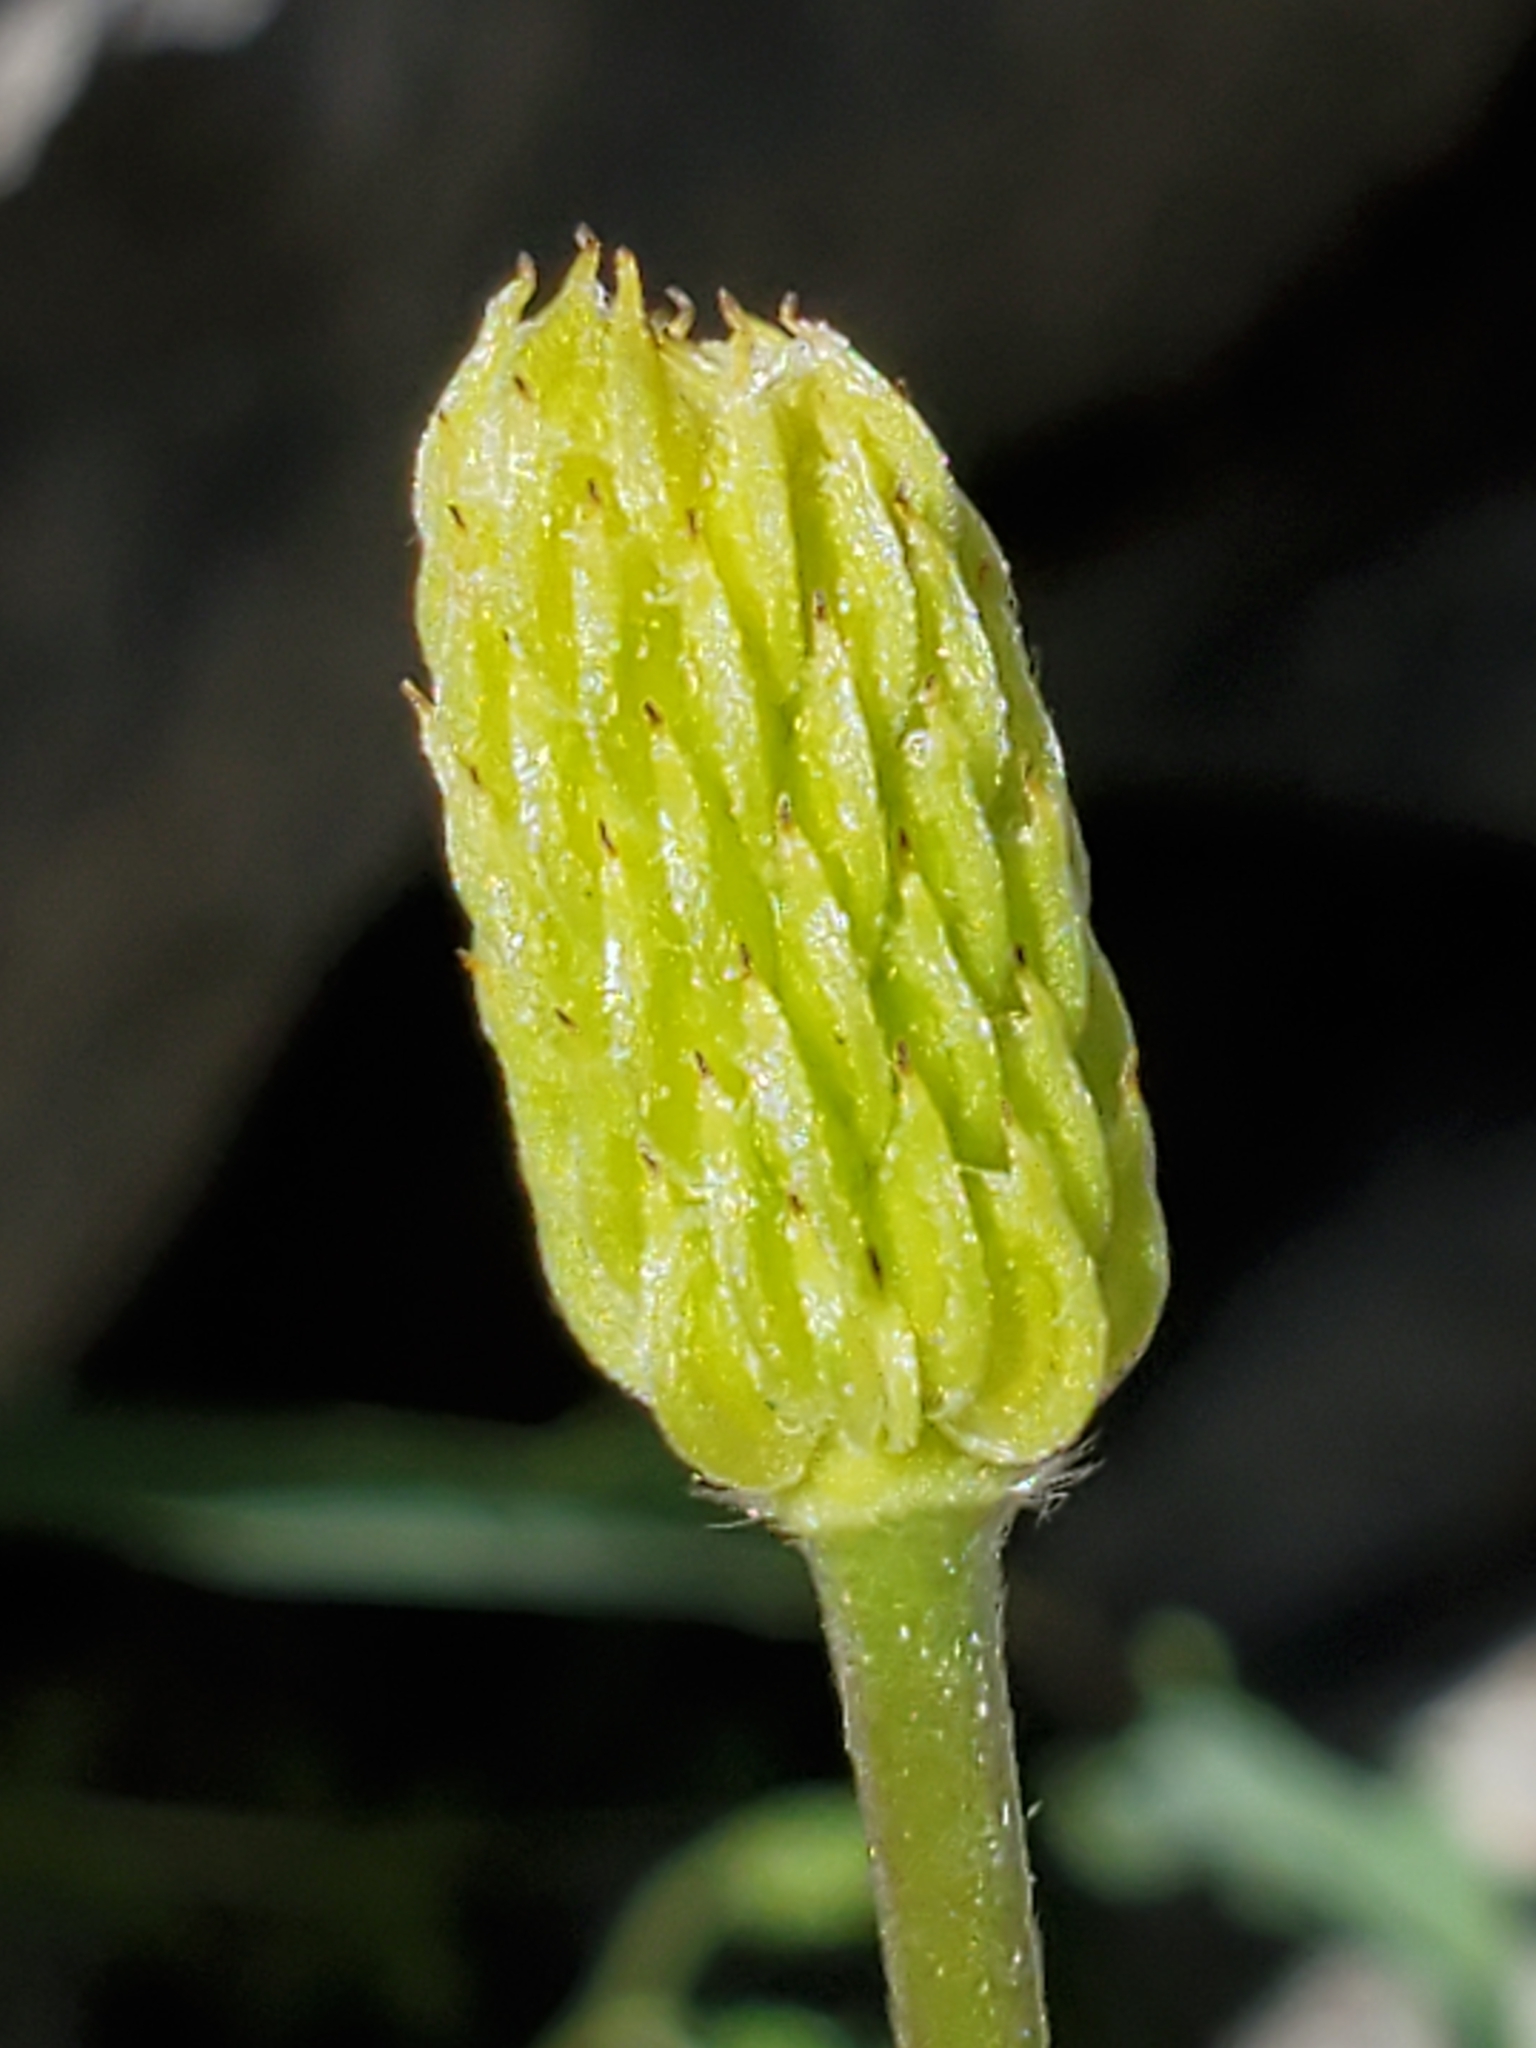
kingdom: Plantae
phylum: Tracheophyta
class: Magnoliopsida
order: Ranunculales
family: Ranunculaceae
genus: Anemone
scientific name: Anemone edwardsiana
